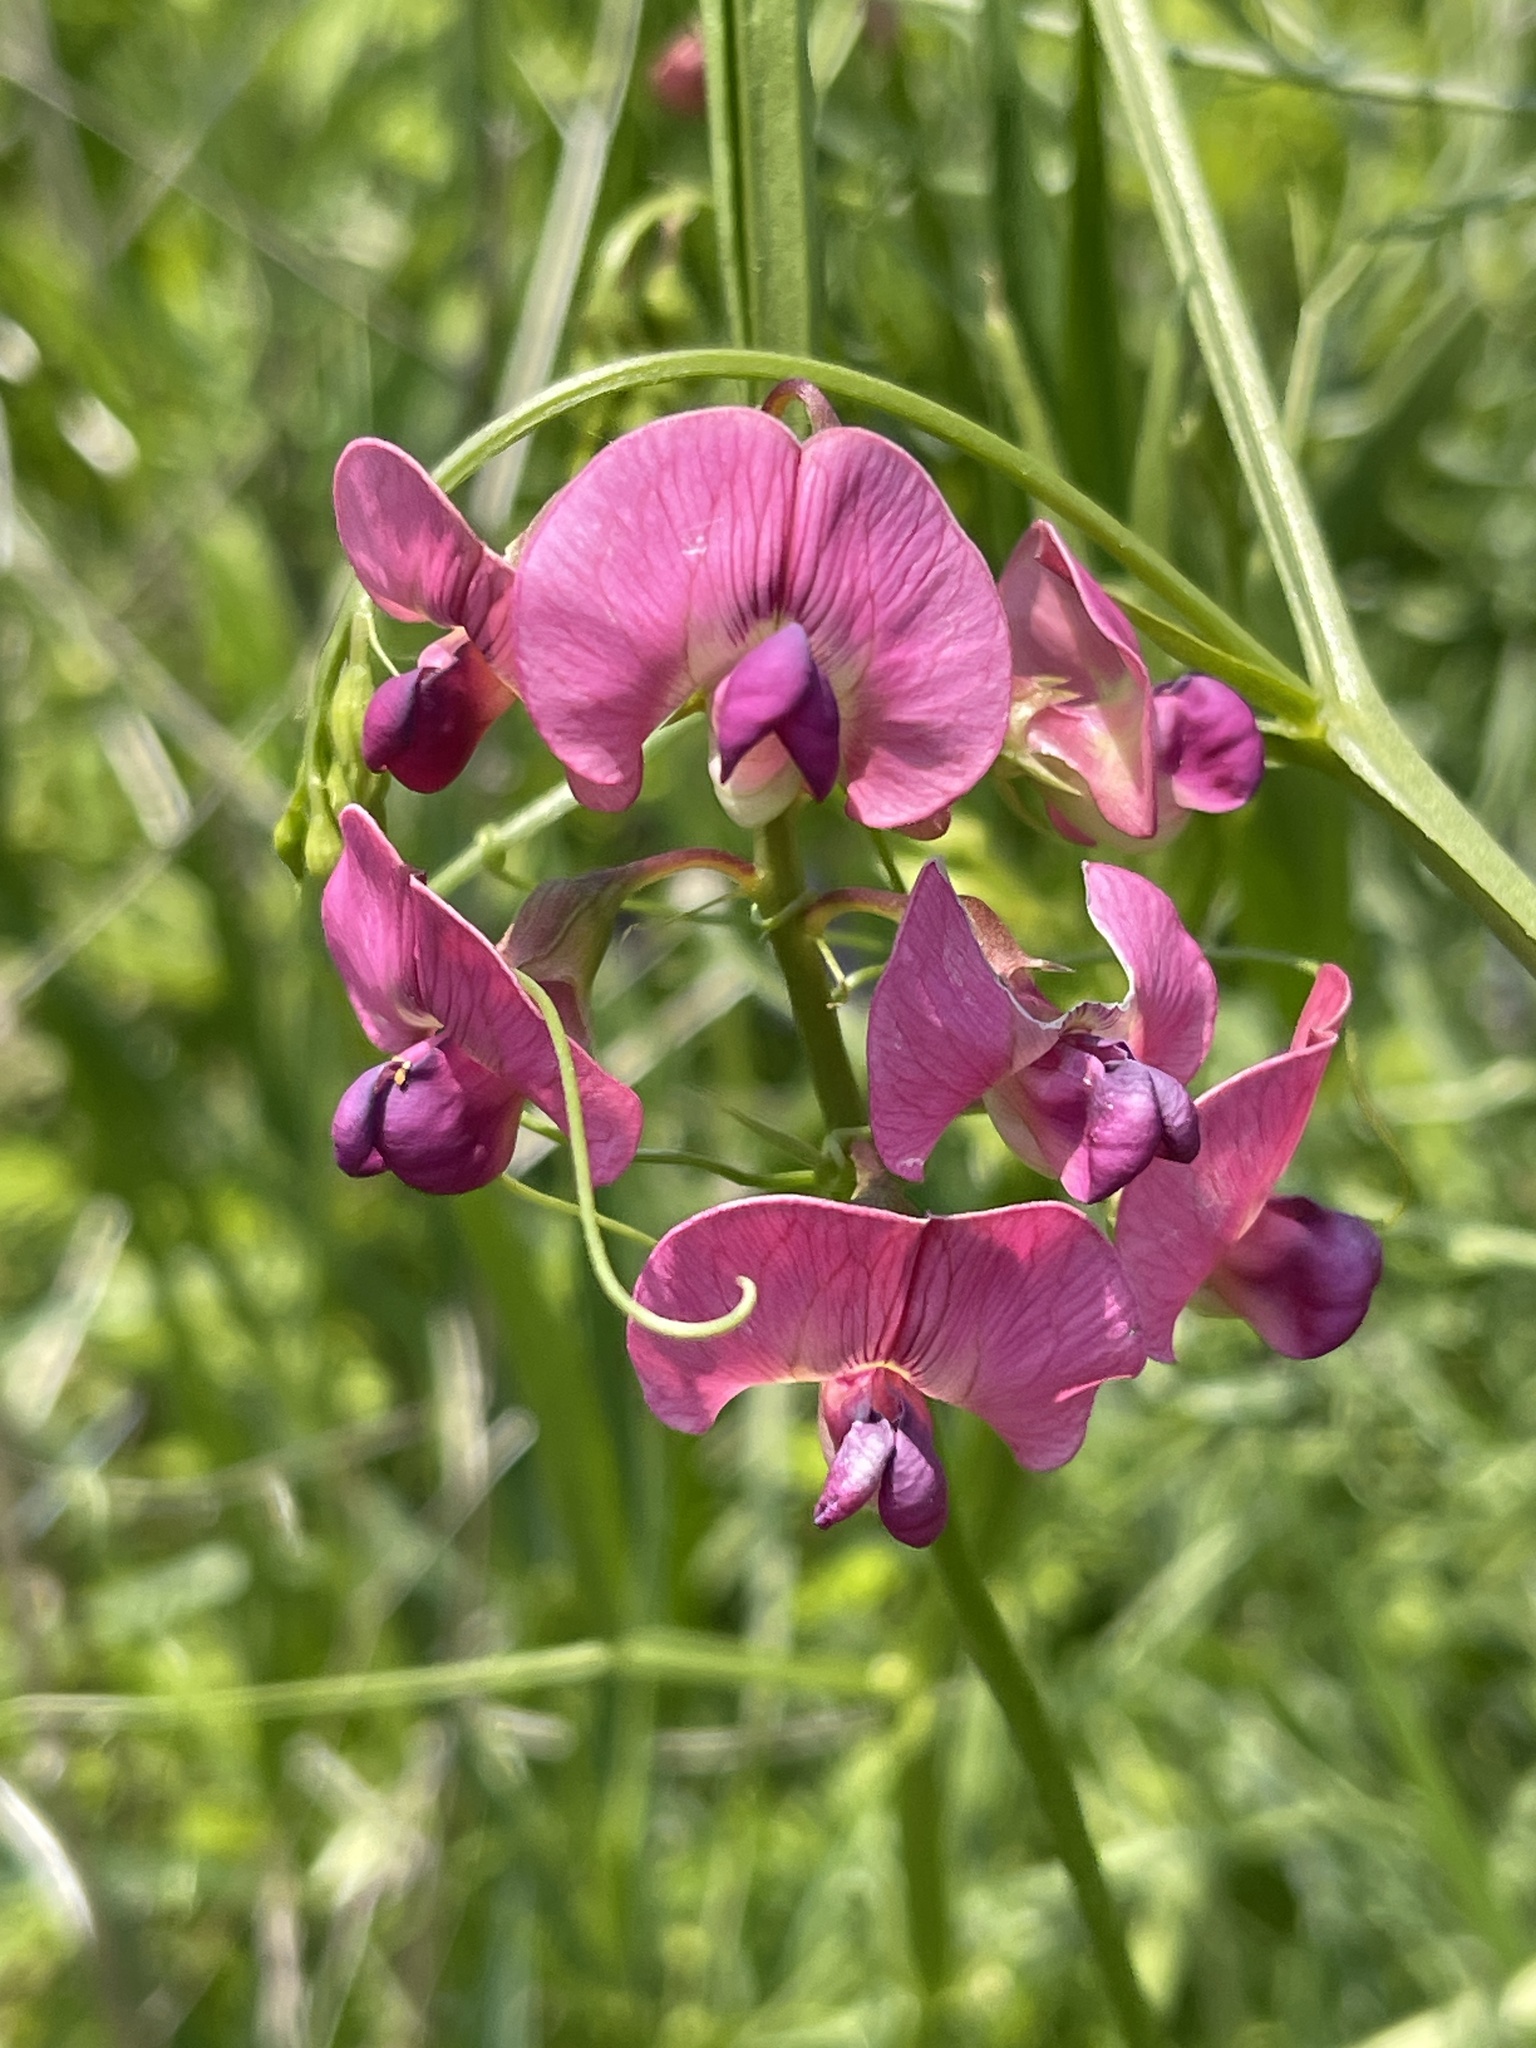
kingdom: Plantae
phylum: Tracheophyta
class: Magnoliopsida
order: Fabales
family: Fabaceae
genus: Lathyrus
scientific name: Lathyrus sylvestris
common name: Flat pea
